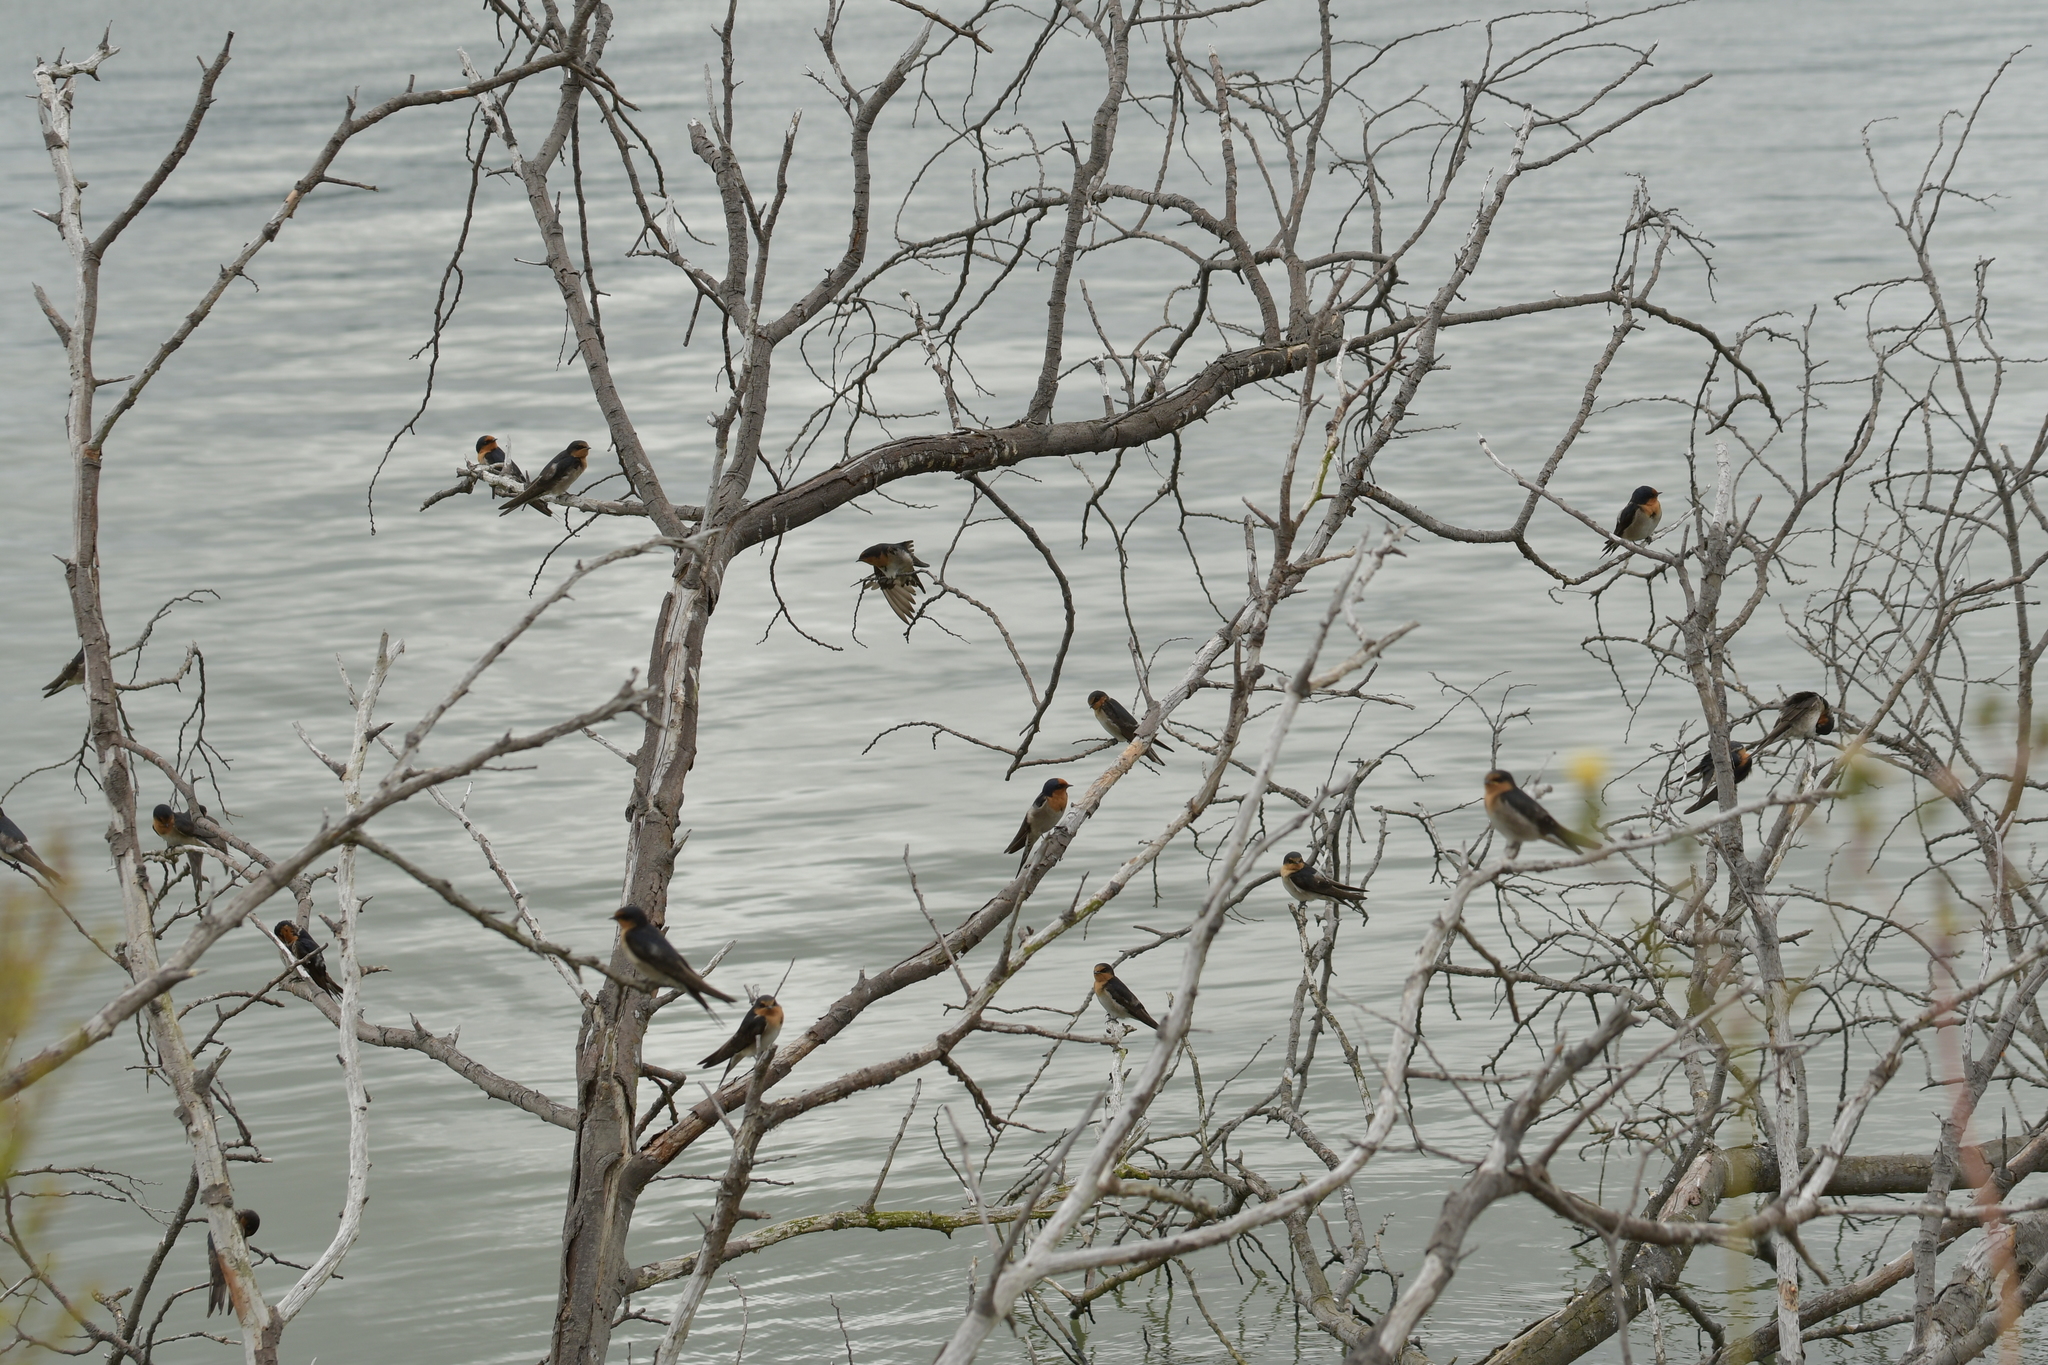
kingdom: Animalia
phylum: Chordata
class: Aves
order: Passeriformes
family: Hirundinidae
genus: Hirundo
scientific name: Hirundo neoxena
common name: Welcome swallow
